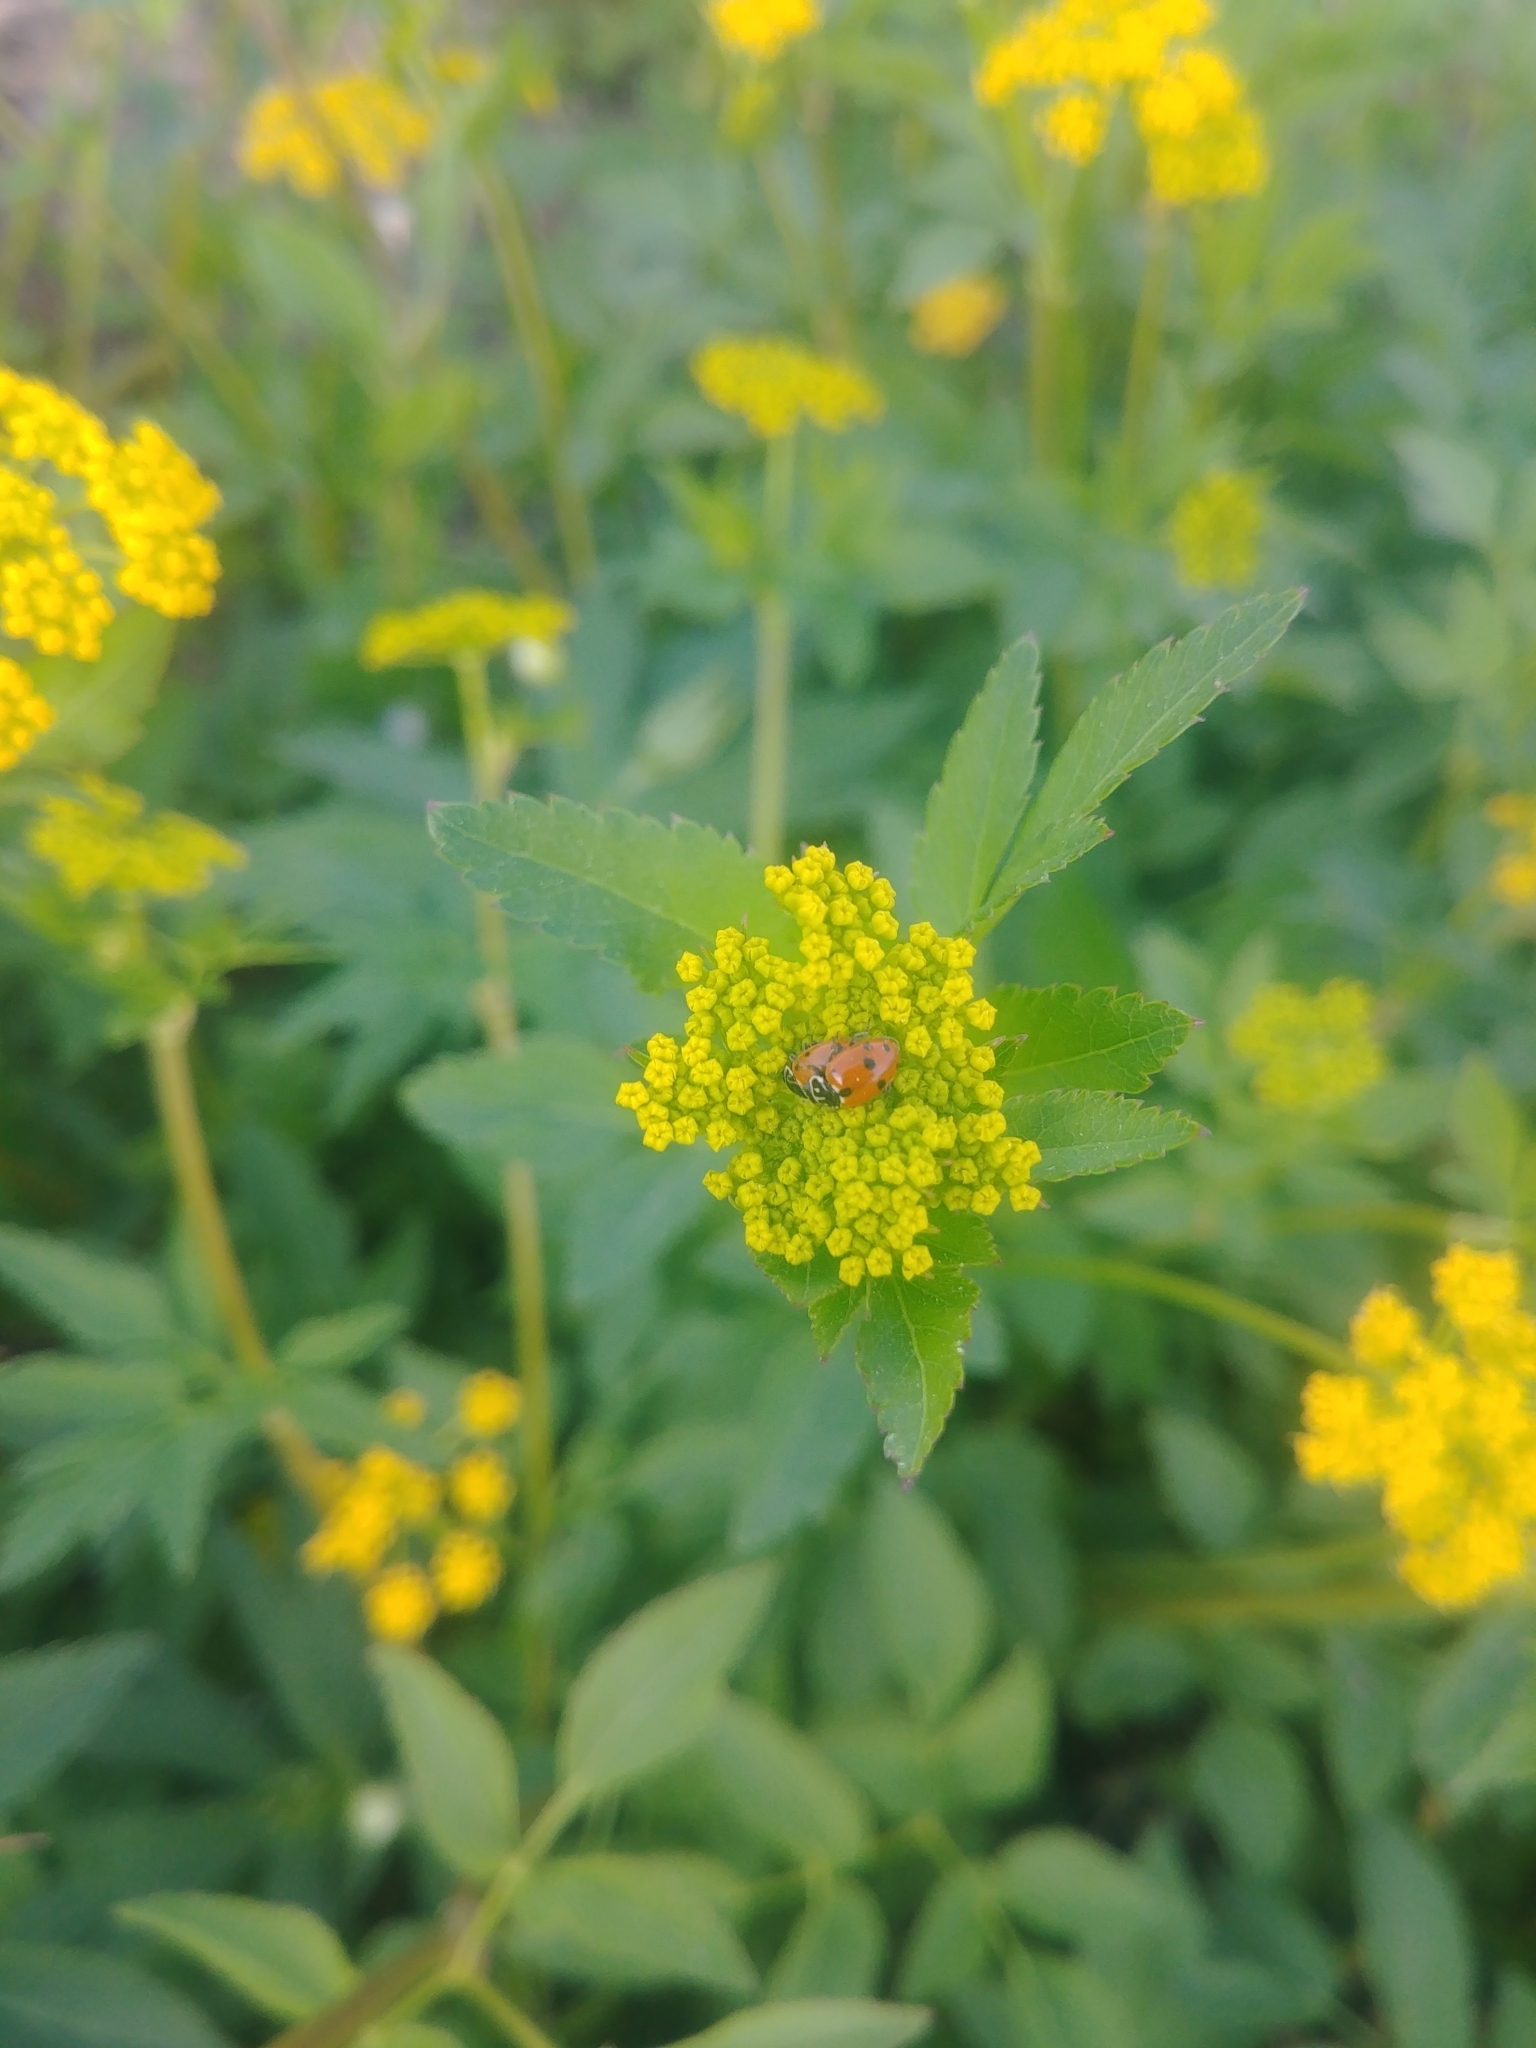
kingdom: Animalia
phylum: Arthropoda
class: Insecta
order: Coleoptera
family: Coccinellidae
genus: Hippodamia
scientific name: Hippodamia variegata
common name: Ladybird beetle
